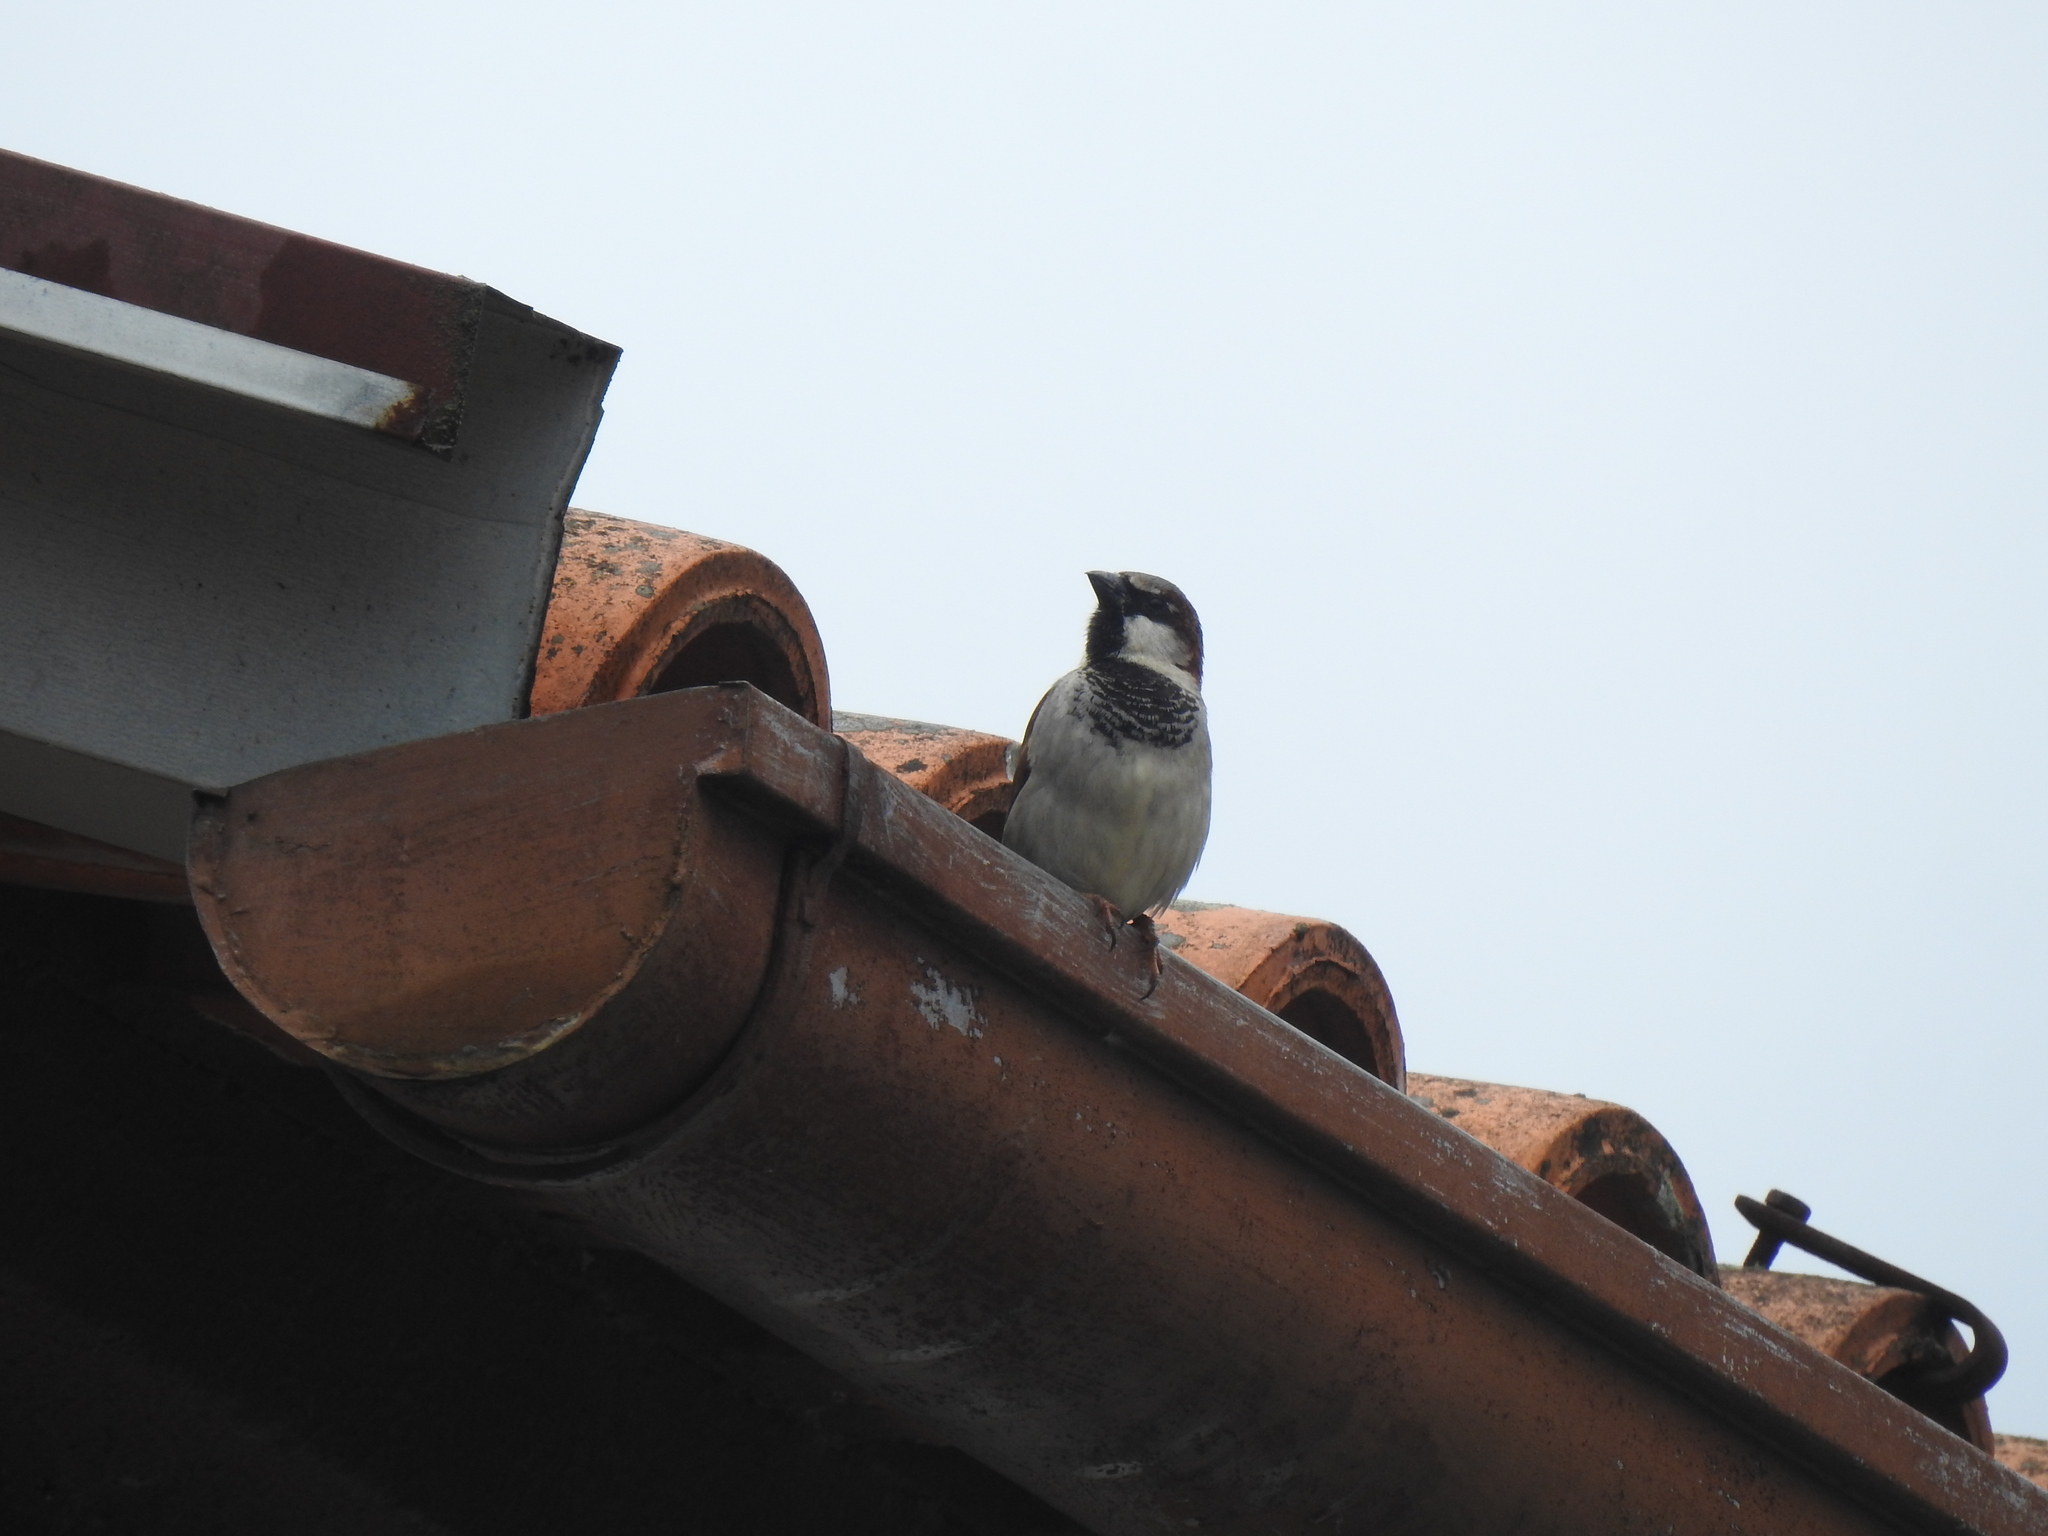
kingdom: Animalia
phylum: Chordata
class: Aves
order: Passeriformes
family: Passeridae
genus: Passer
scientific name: Passer domesticus
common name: House sparrow
